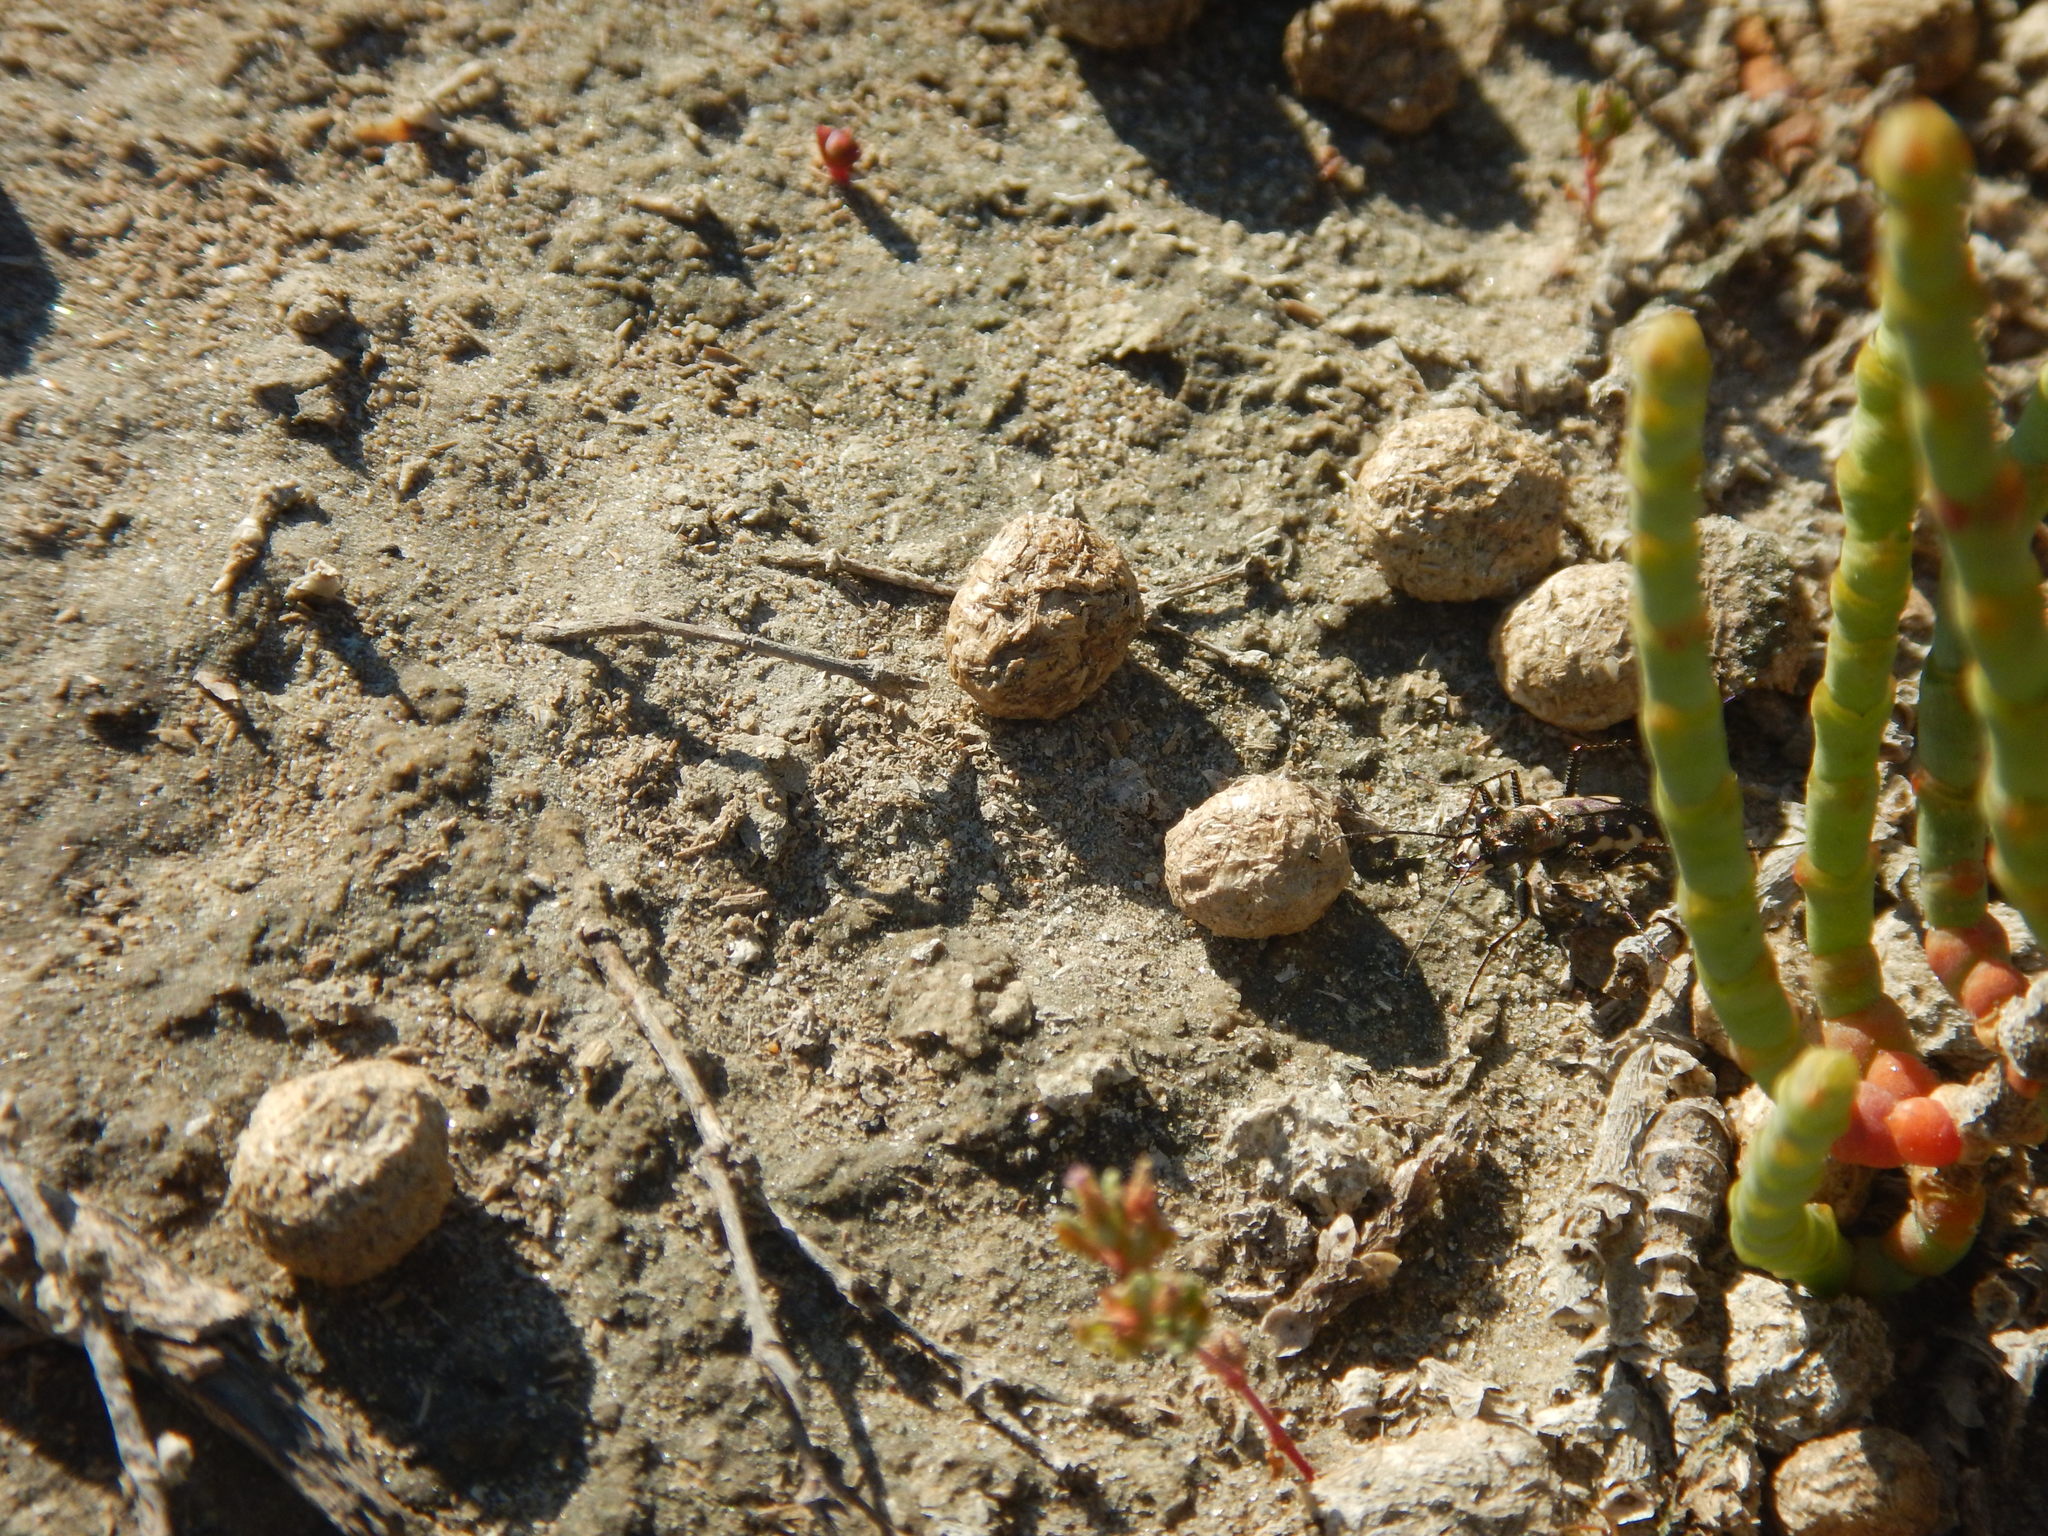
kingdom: Animalia
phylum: Arthropoda
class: Insecta
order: Coleoptera
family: Carabidae
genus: Cylindera
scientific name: Cylindera paludosa
